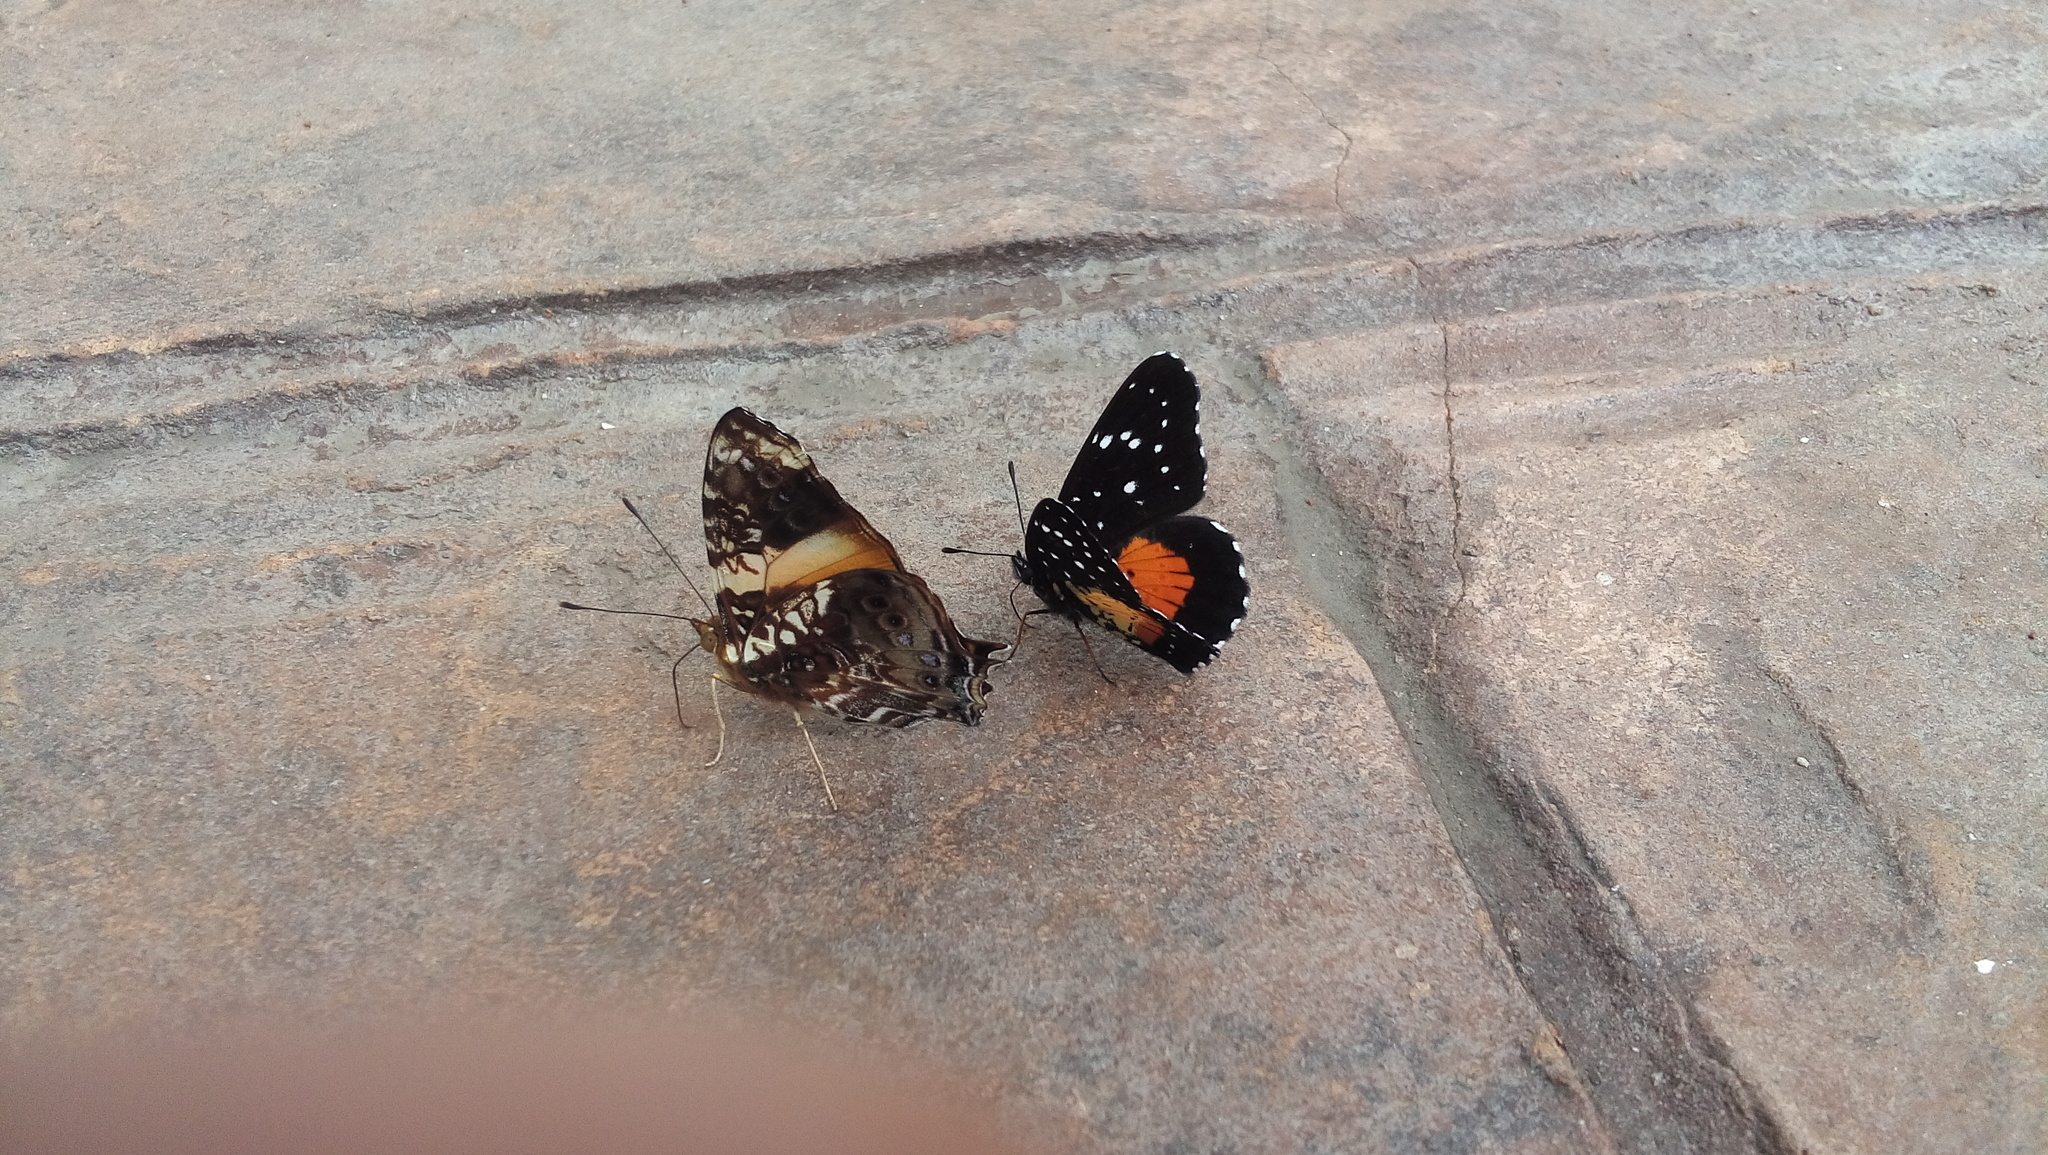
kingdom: Animalia
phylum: Arthropoda
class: Insecta
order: Lepidoptera
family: Nymphalidae
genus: Chlosyne
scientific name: Chlosyne janais
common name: Crimson patch
